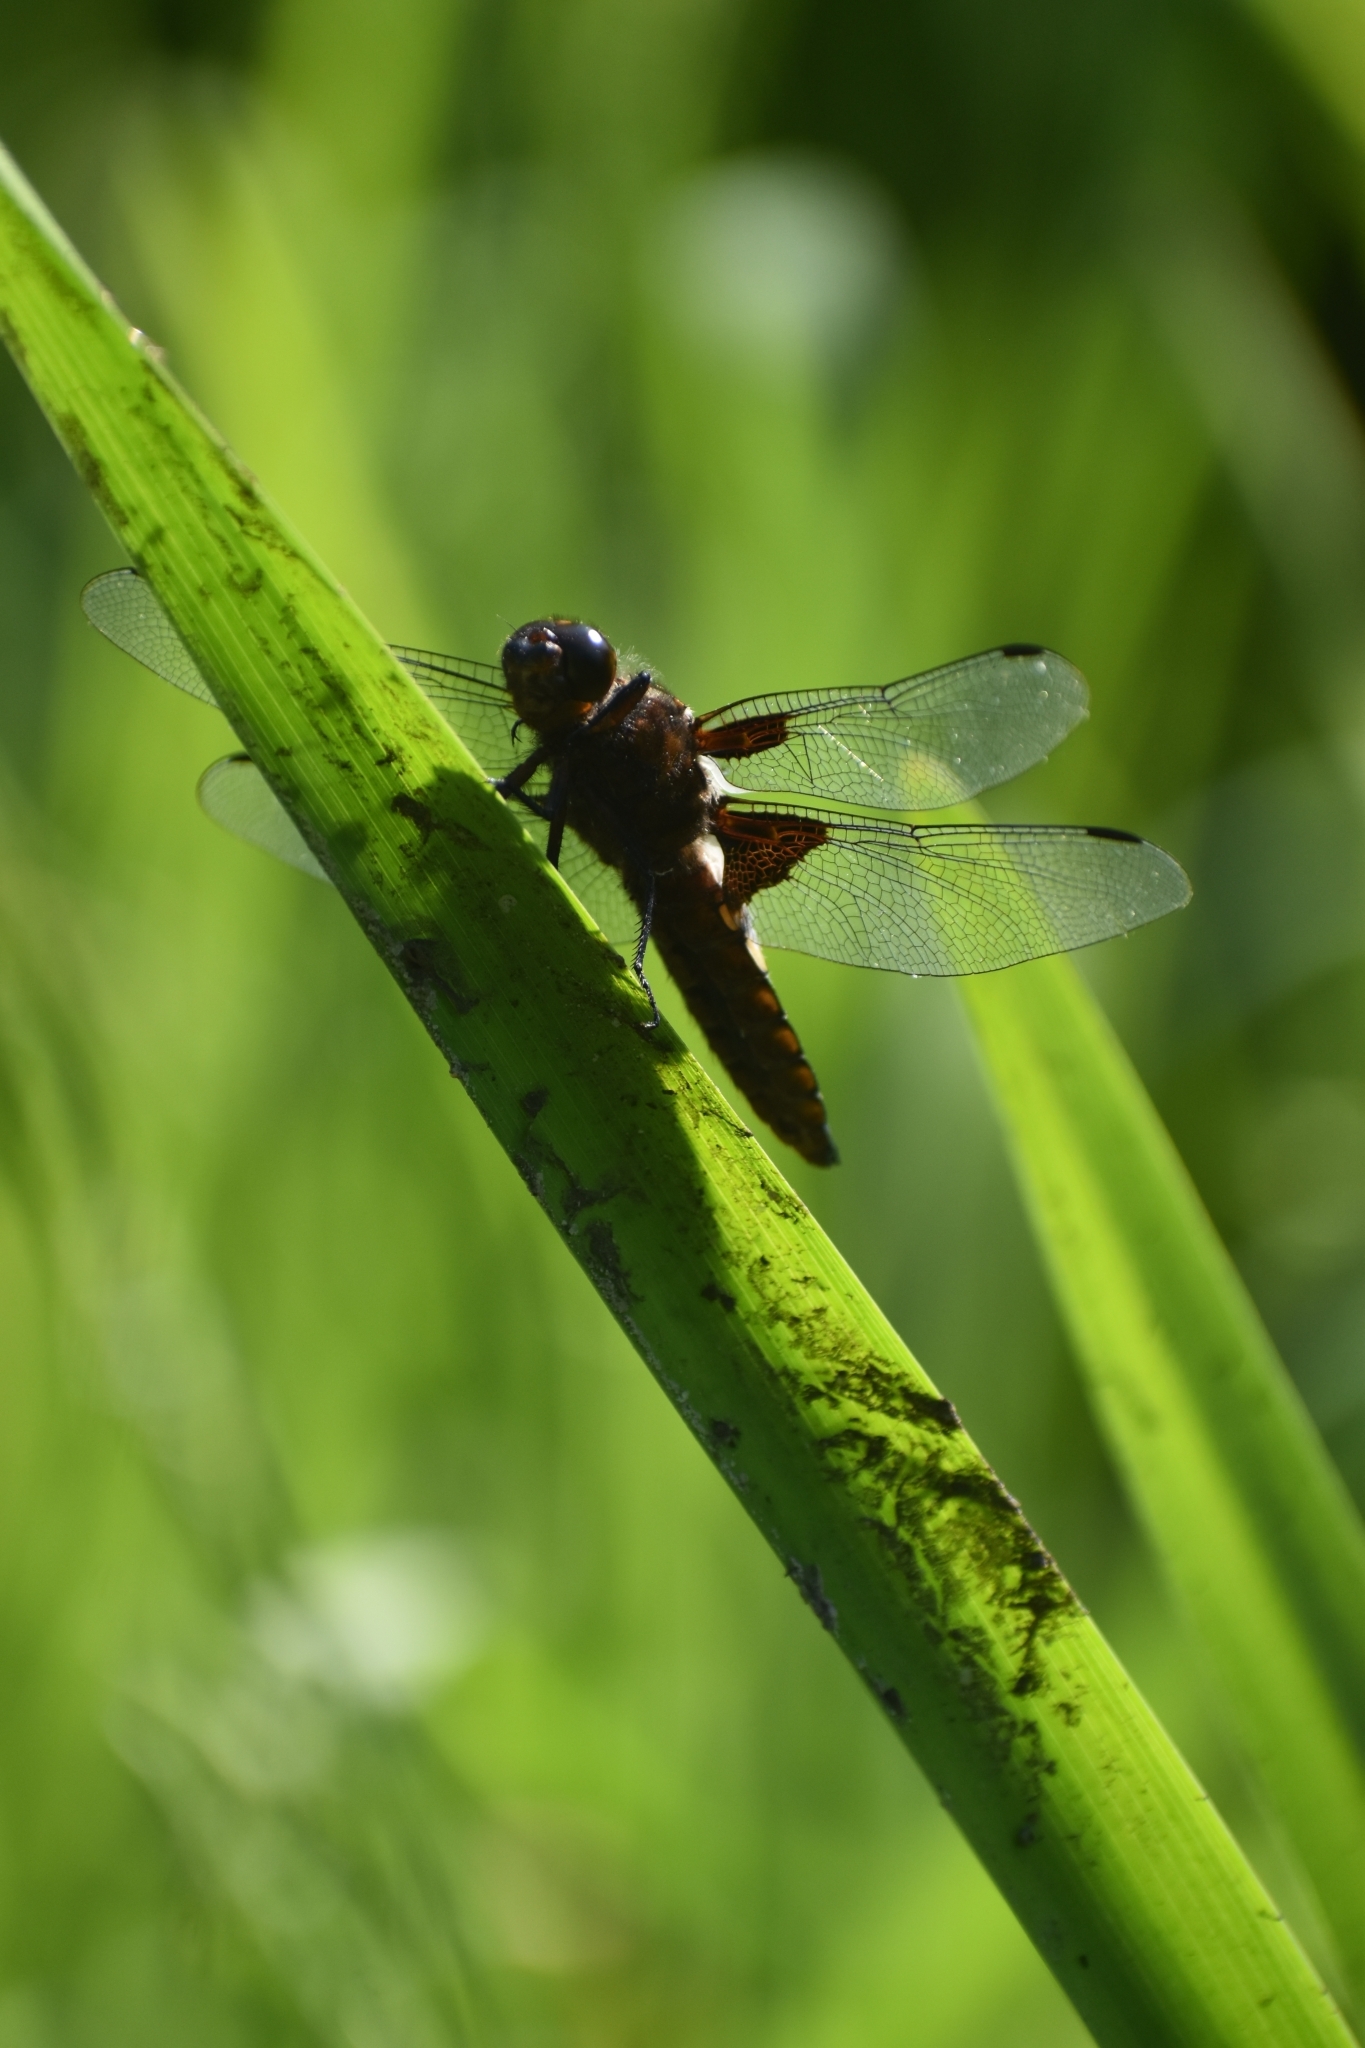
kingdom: Animalia
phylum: Arthropoda
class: Insecta
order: Odonata
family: Libellulidae
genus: Libellula
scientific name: Libellula depressa
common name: Broad-bodied chaser
